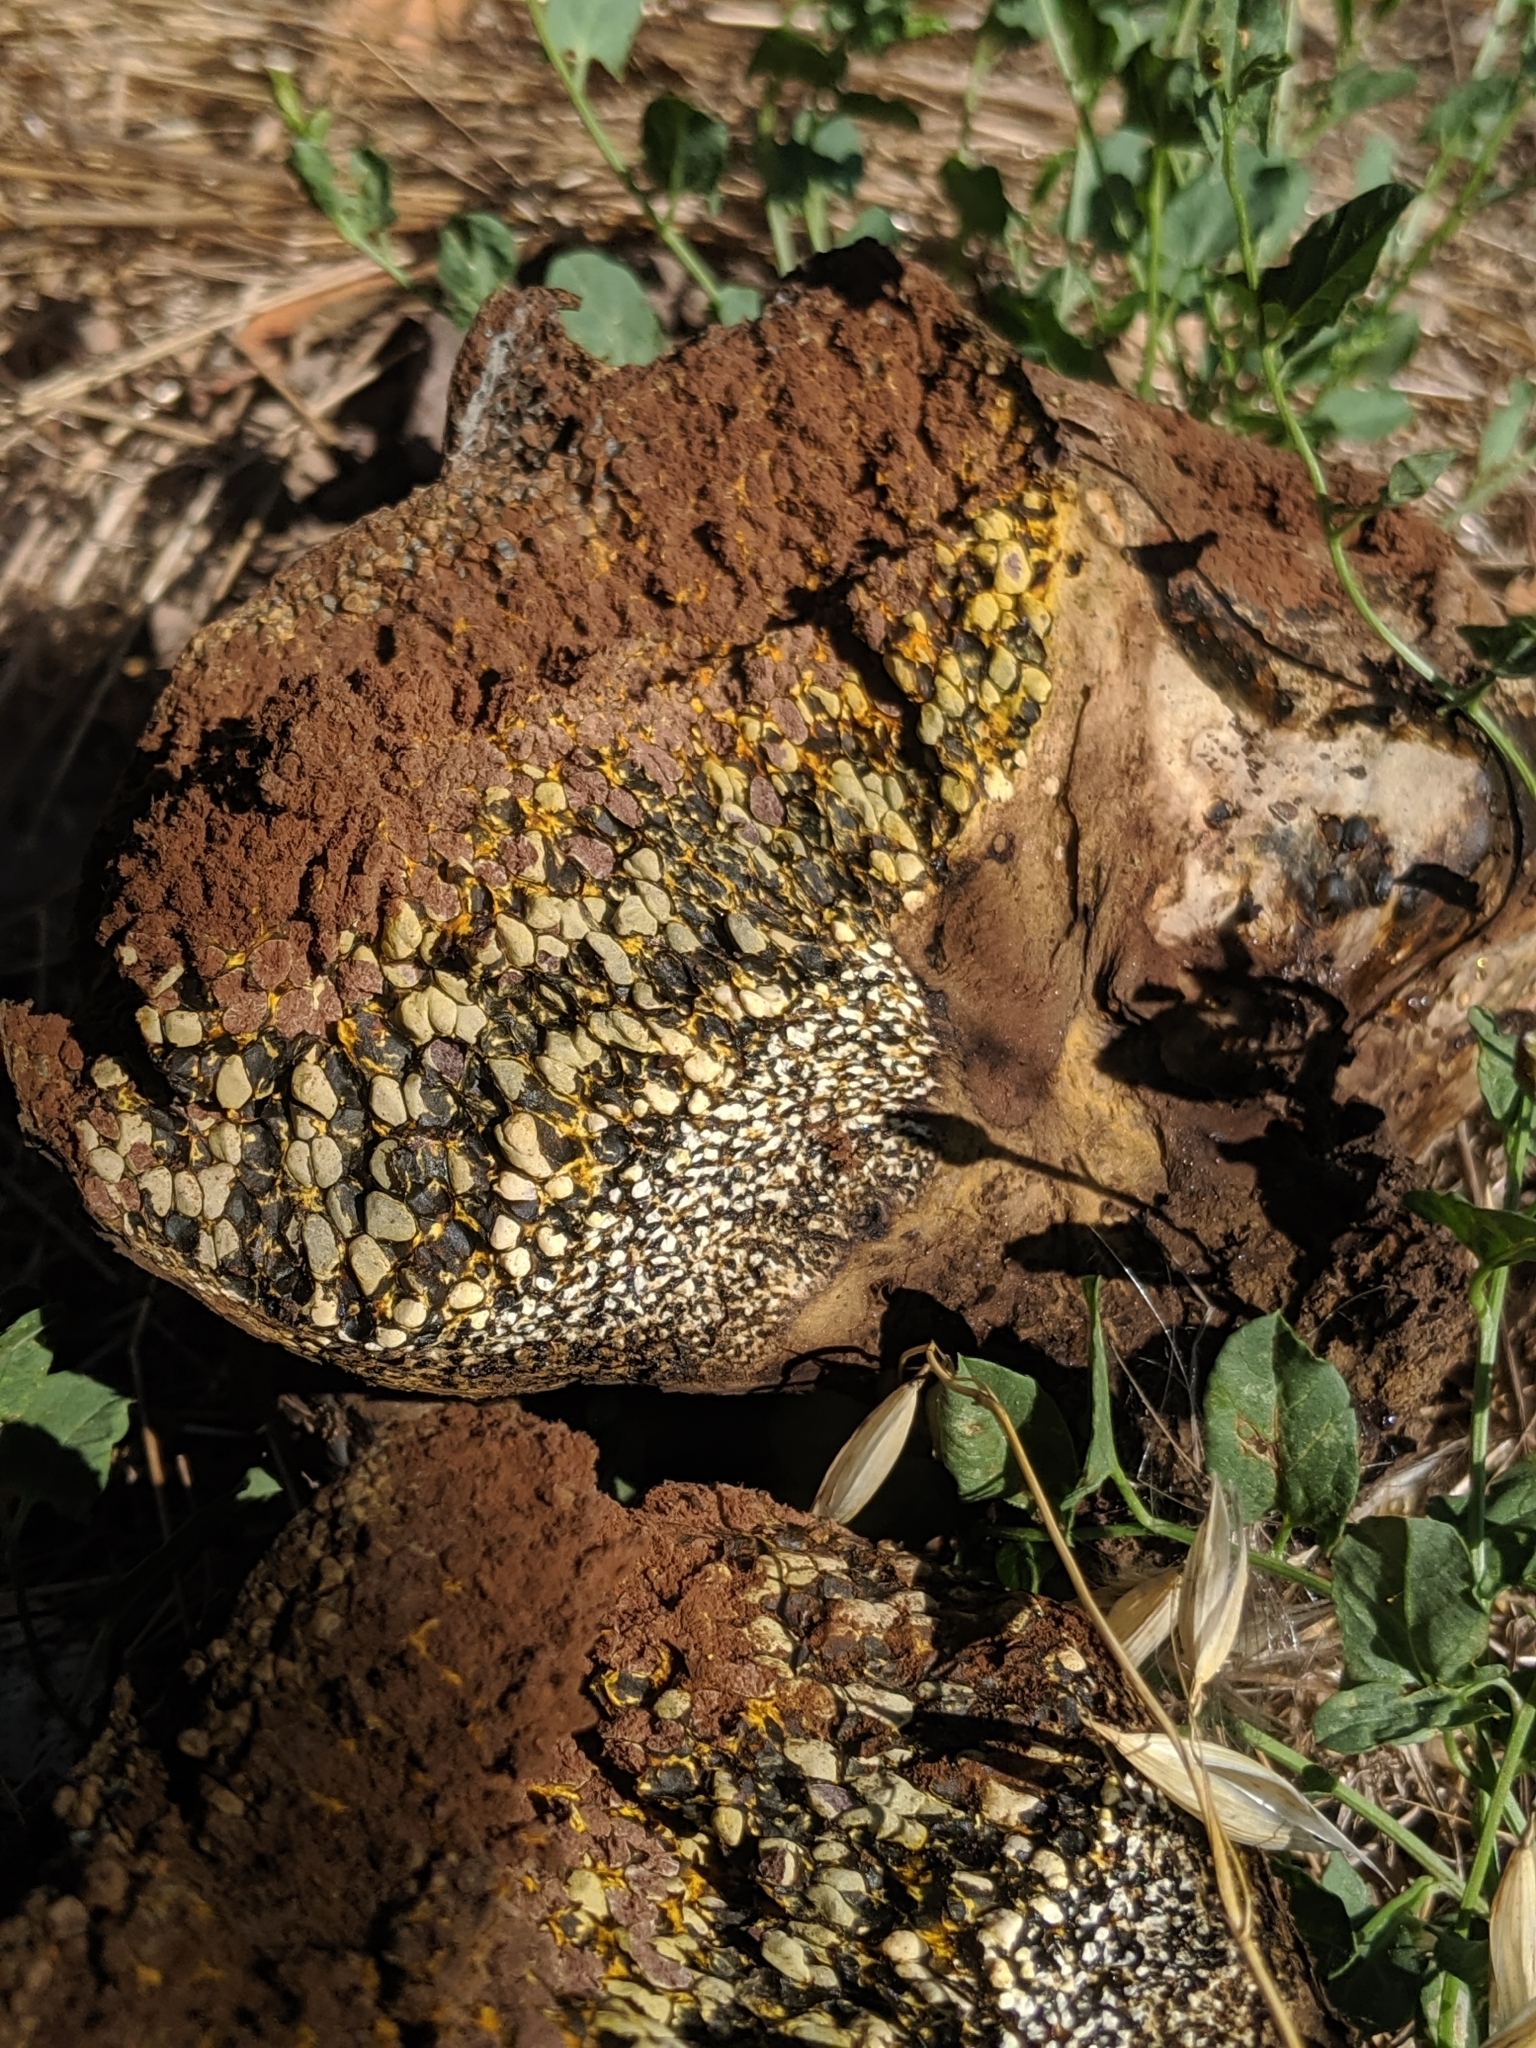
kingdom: Fungi
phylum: Basidiomycota
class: Agaricomycetes
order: Boletales
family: Sclerodermataceae
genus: Pisolithus
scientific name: Pisolithus arhizus
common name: Dyeball
